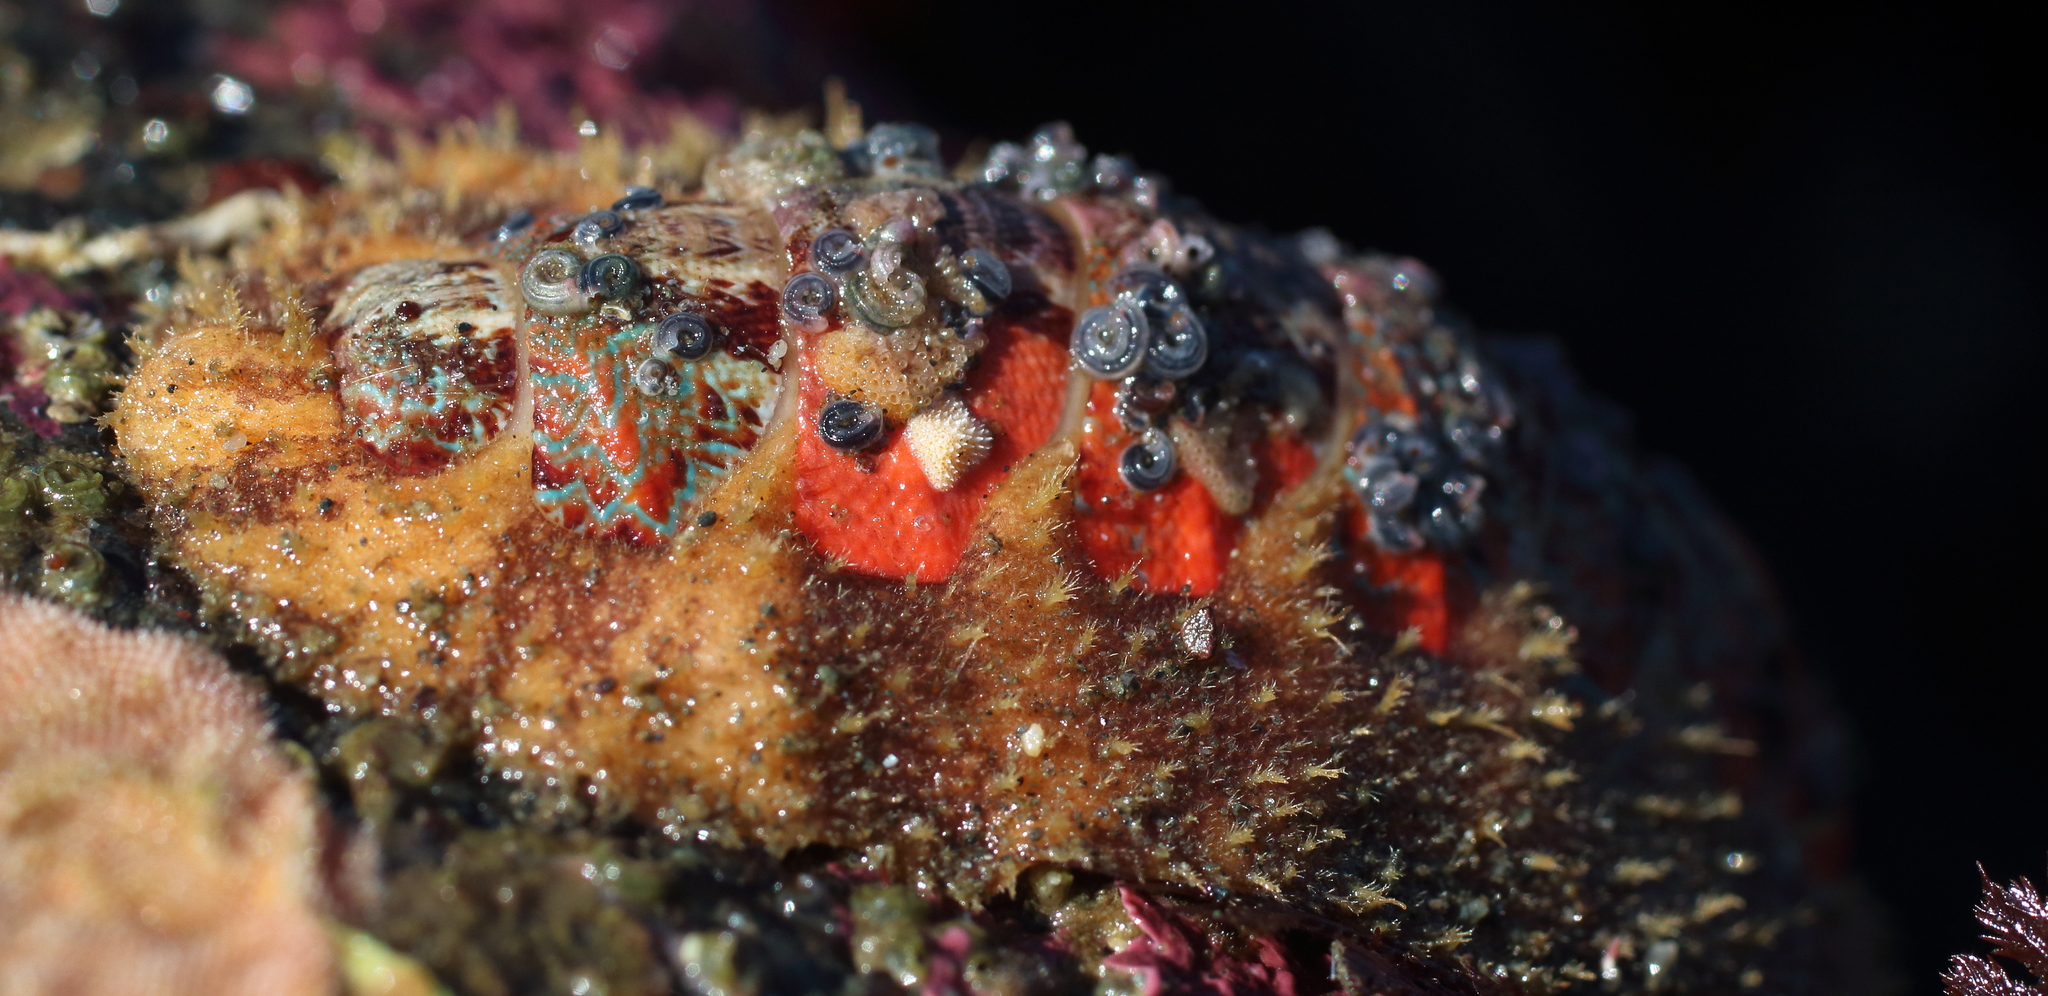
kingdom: Animalia
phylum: Mollusca
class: Polyplacophora
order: Chitonida
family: Mopaliidae
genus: Mopalia
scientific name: Mopalia spectabilis
